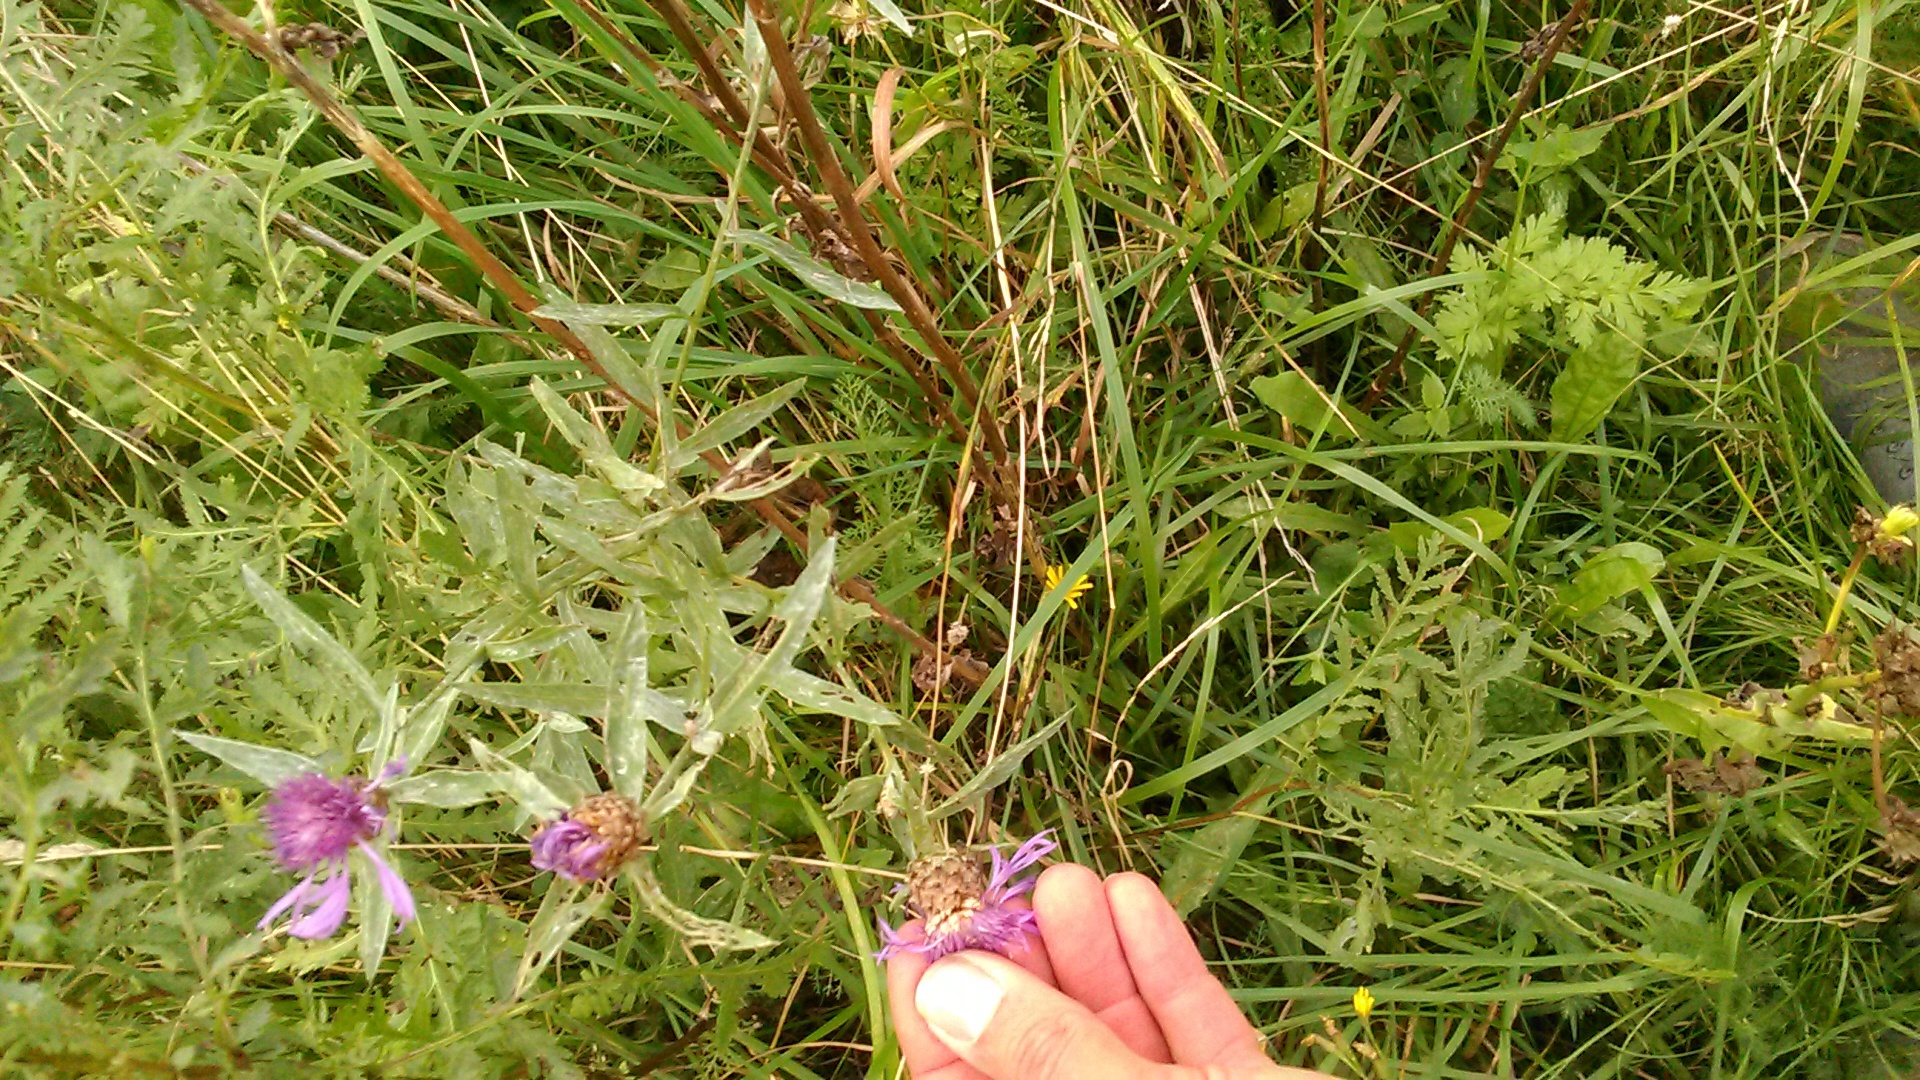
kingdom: Plantae
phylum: Tracheophyta
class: Magnoliopsida
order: Asterales
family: Asteraceae
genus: Centaurea
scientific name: Centaurea jacea
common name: Brown knapweed
